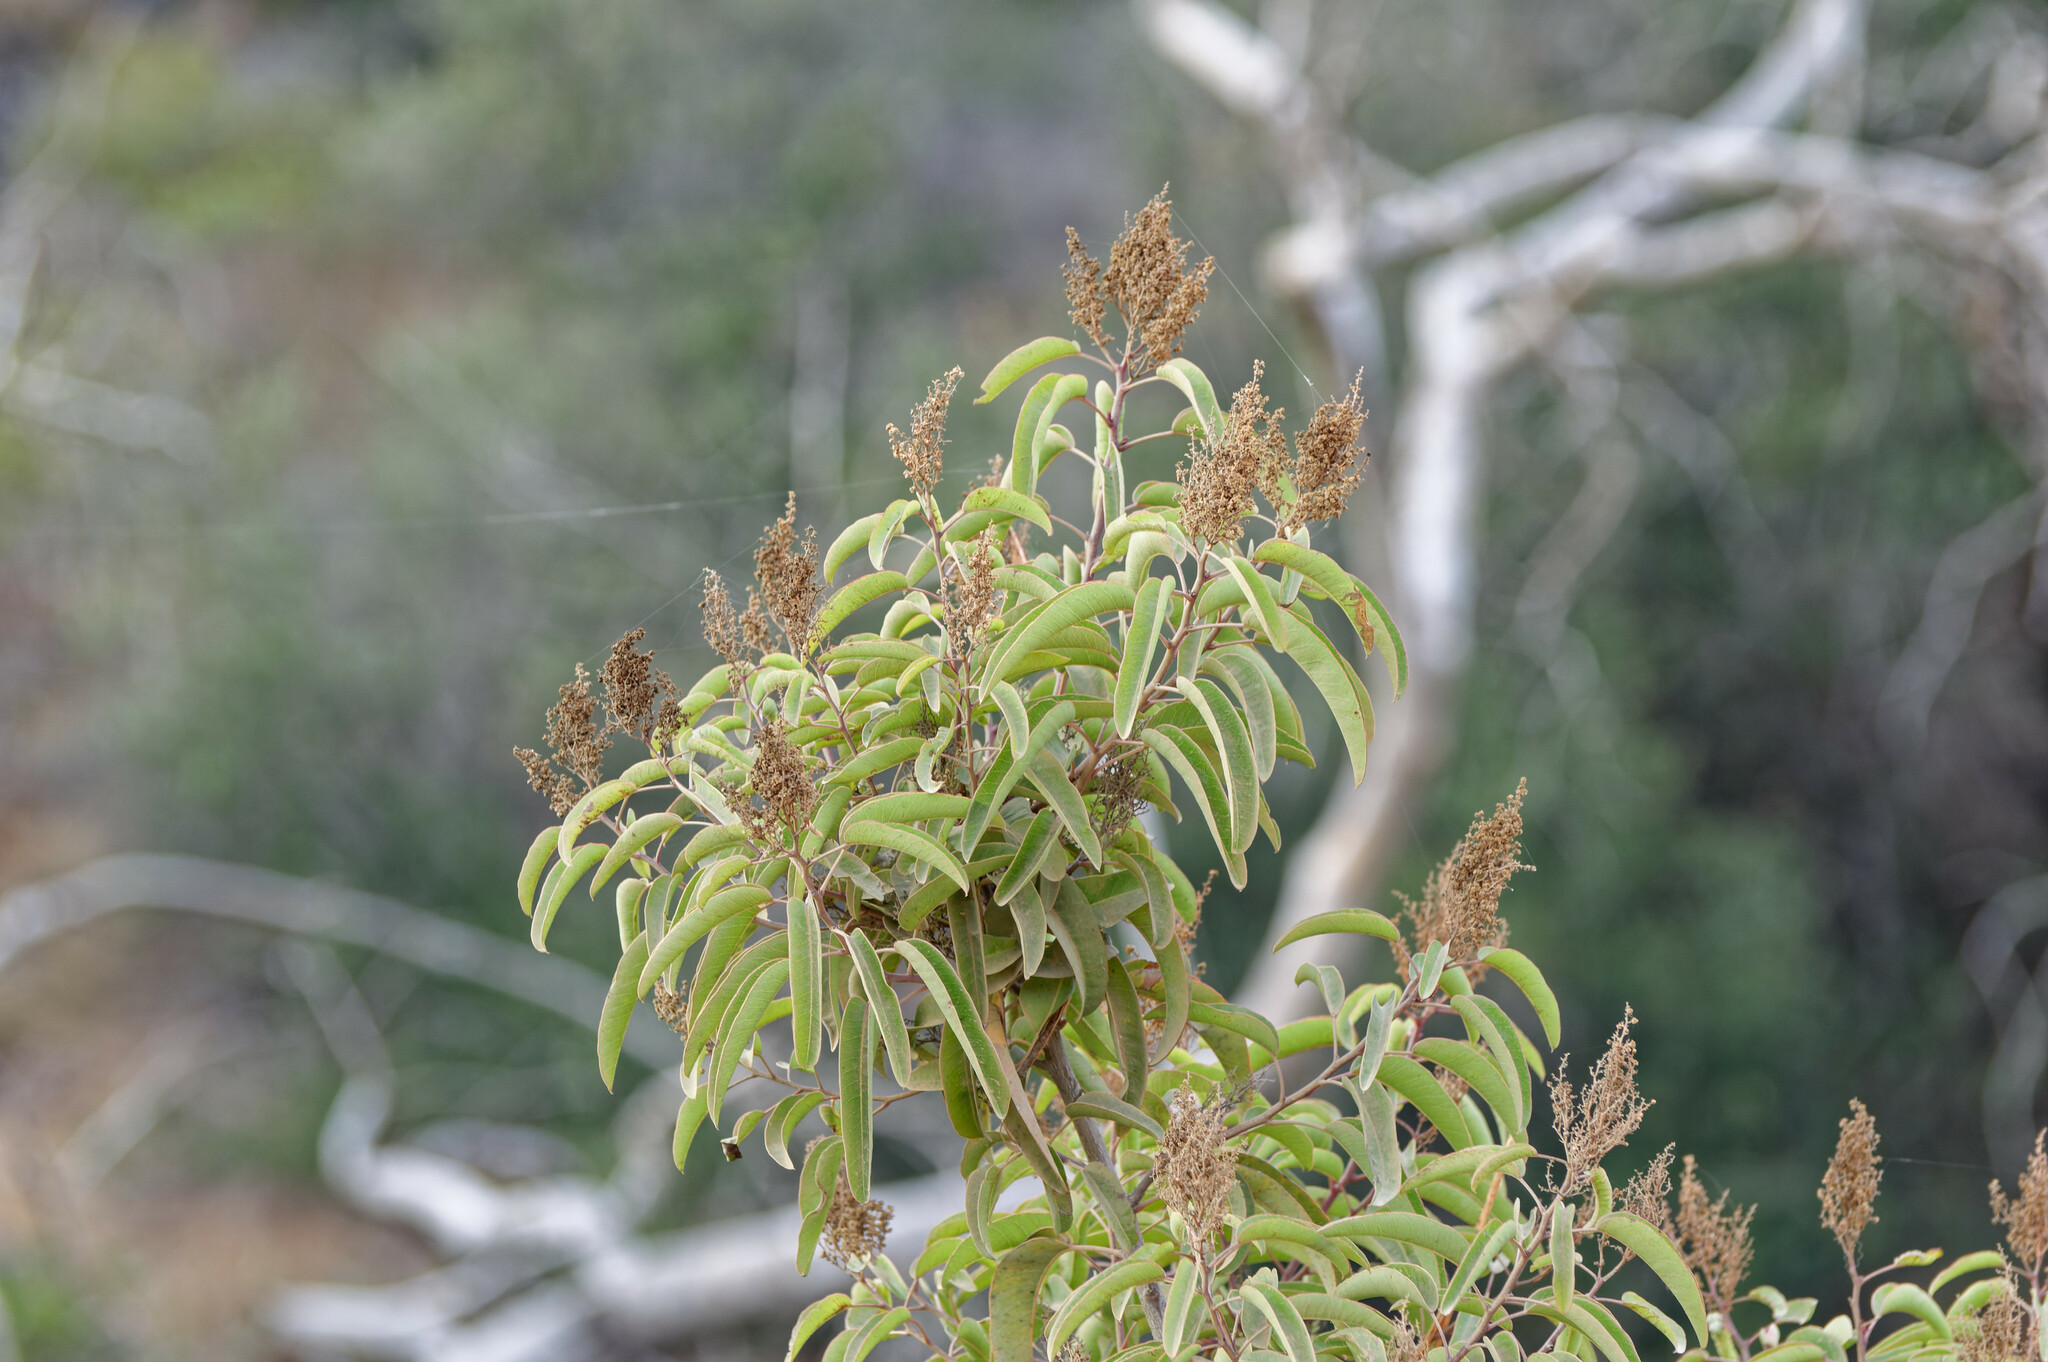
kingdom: Plantae
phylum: Tracheophyta
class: Magnoliopsida
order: Sapindales
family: Anacardiaceae
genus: Malosma
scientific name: Malosma laurina
